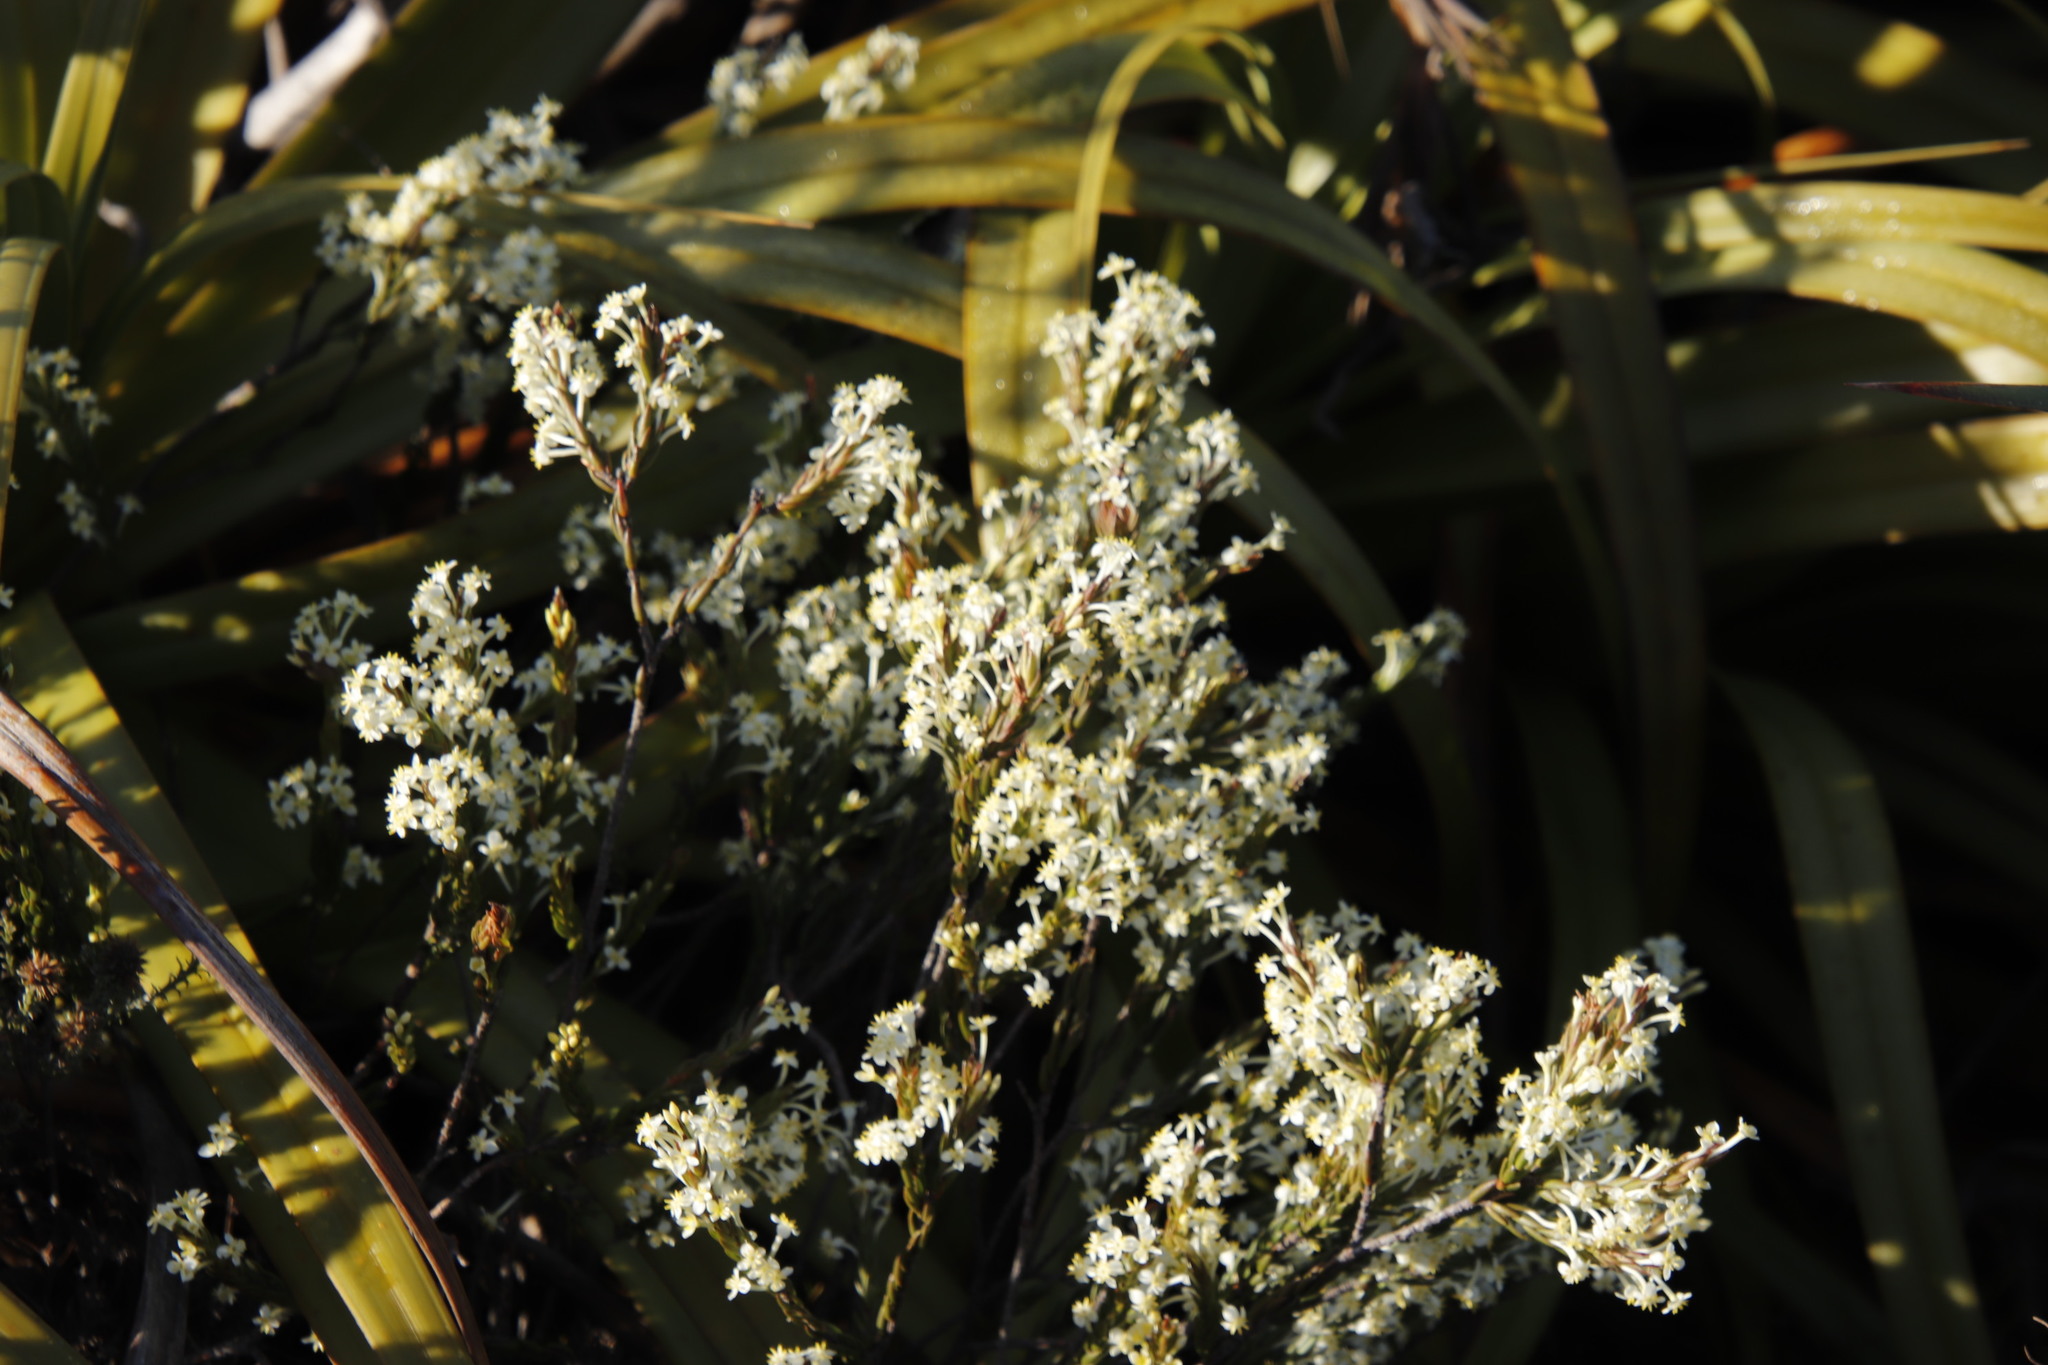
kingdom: Plantae
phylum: Tracheophyta
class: Magnoliopsida
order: Malvales
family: Thymelaeaceae
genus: Struthiola
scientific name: Struthiola ciliata
